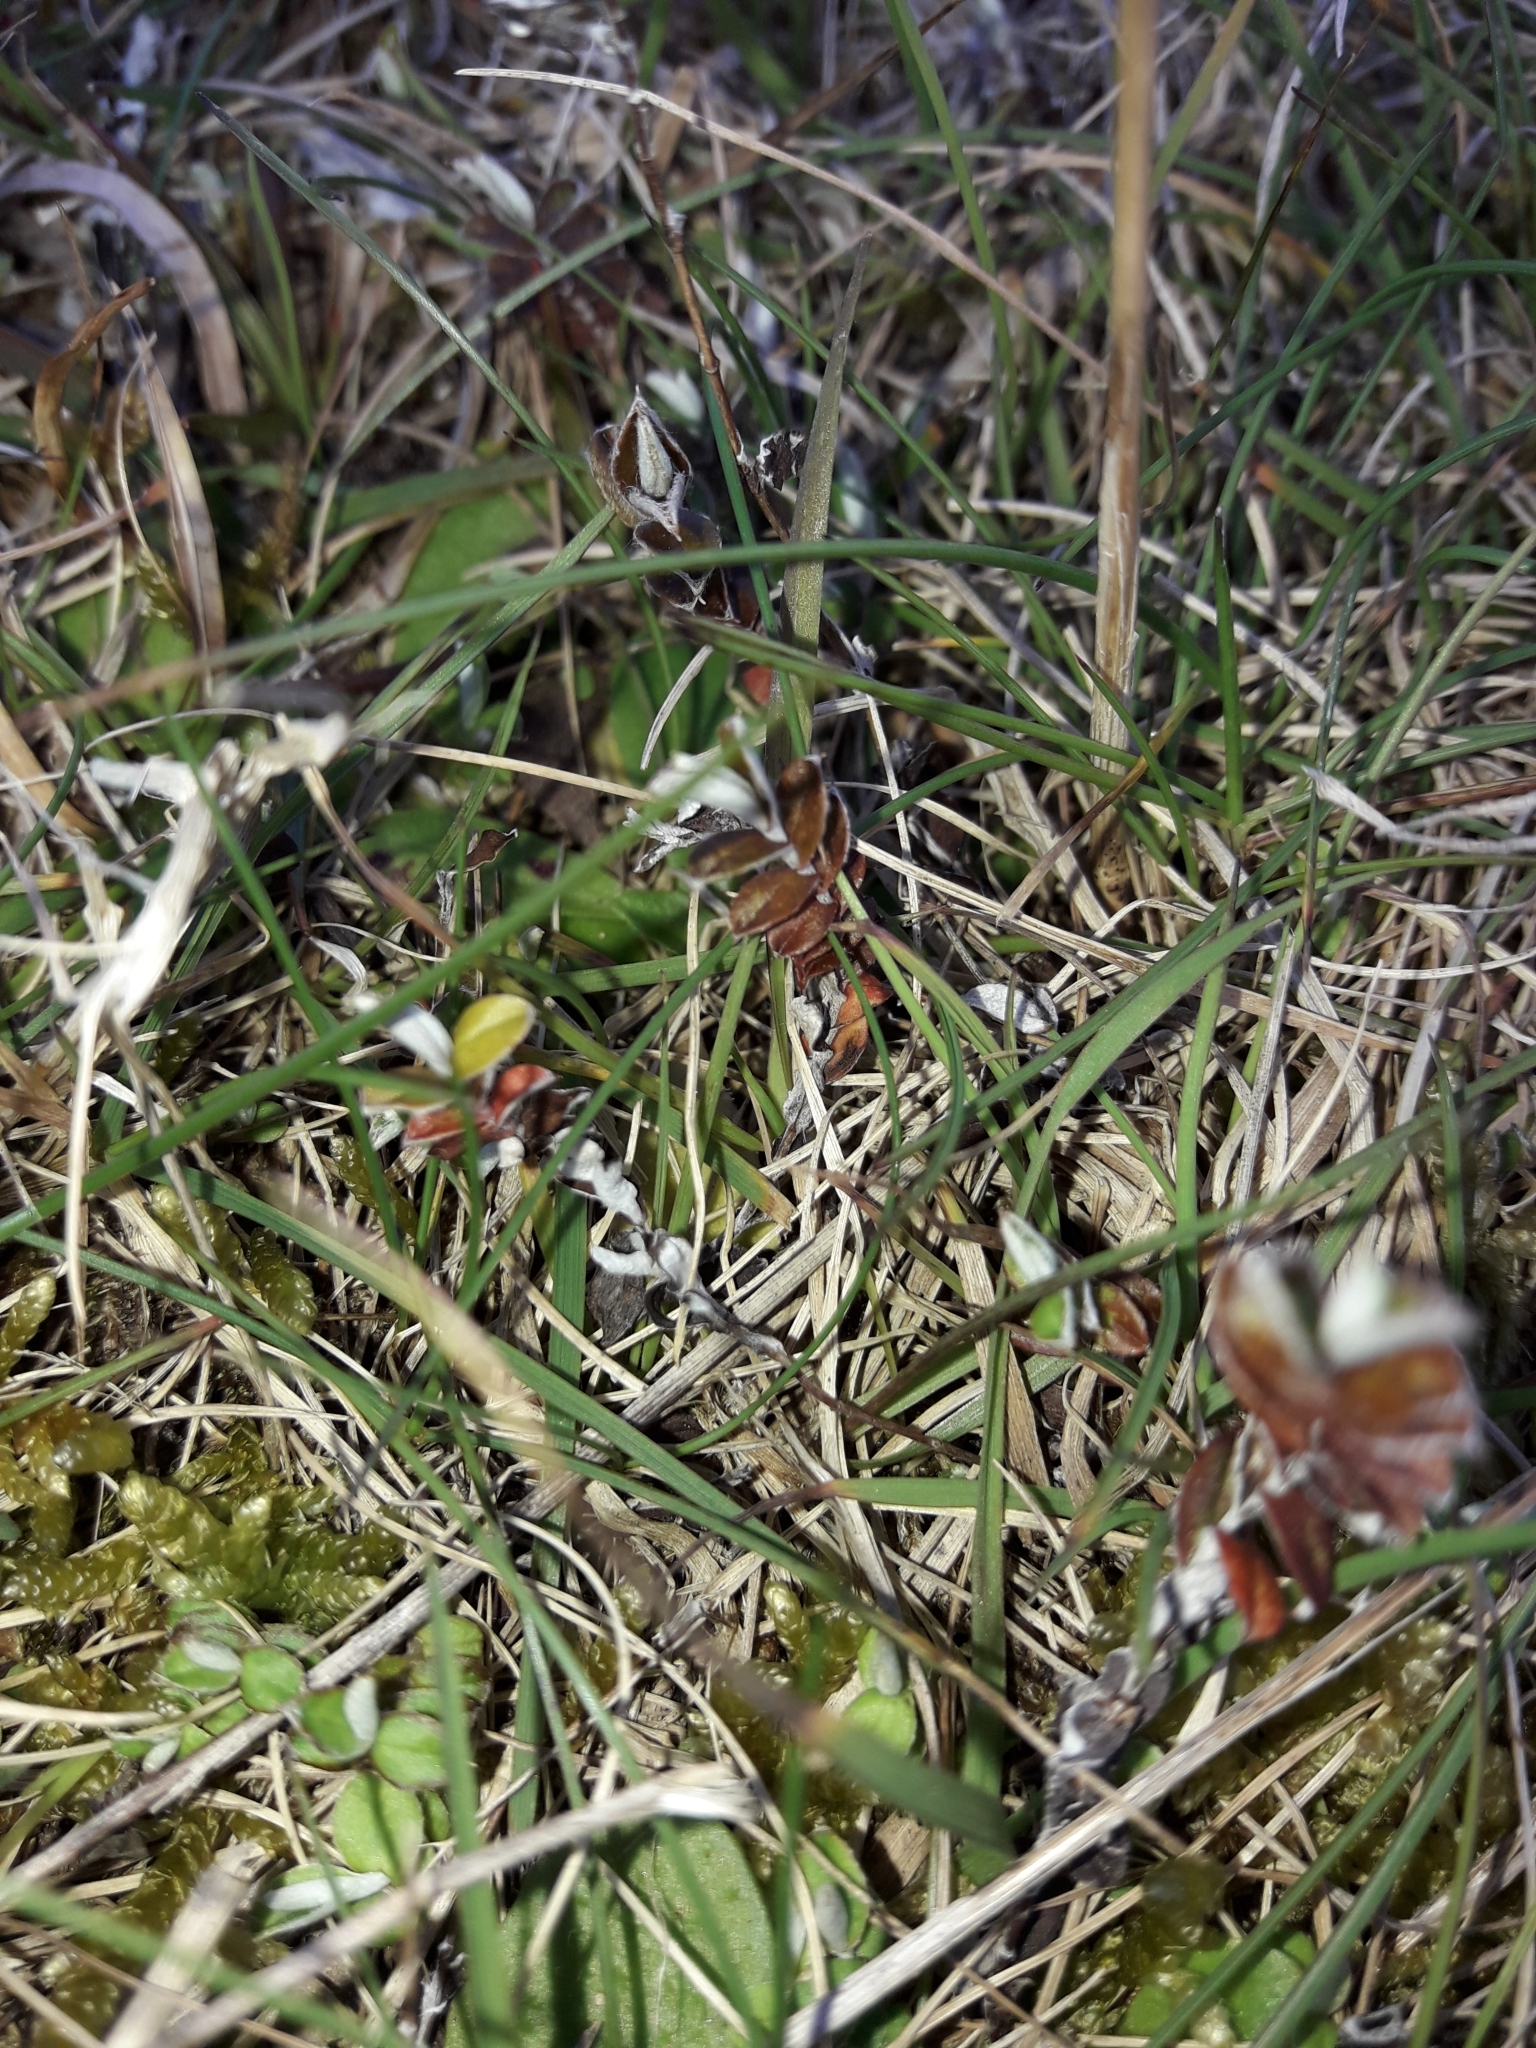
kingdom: Plantae
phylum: Tracheophyta
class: Magnoliopsida
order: Asterales
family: Asteraceae
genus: Helichrysum
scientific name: Helichrysum filicaule
